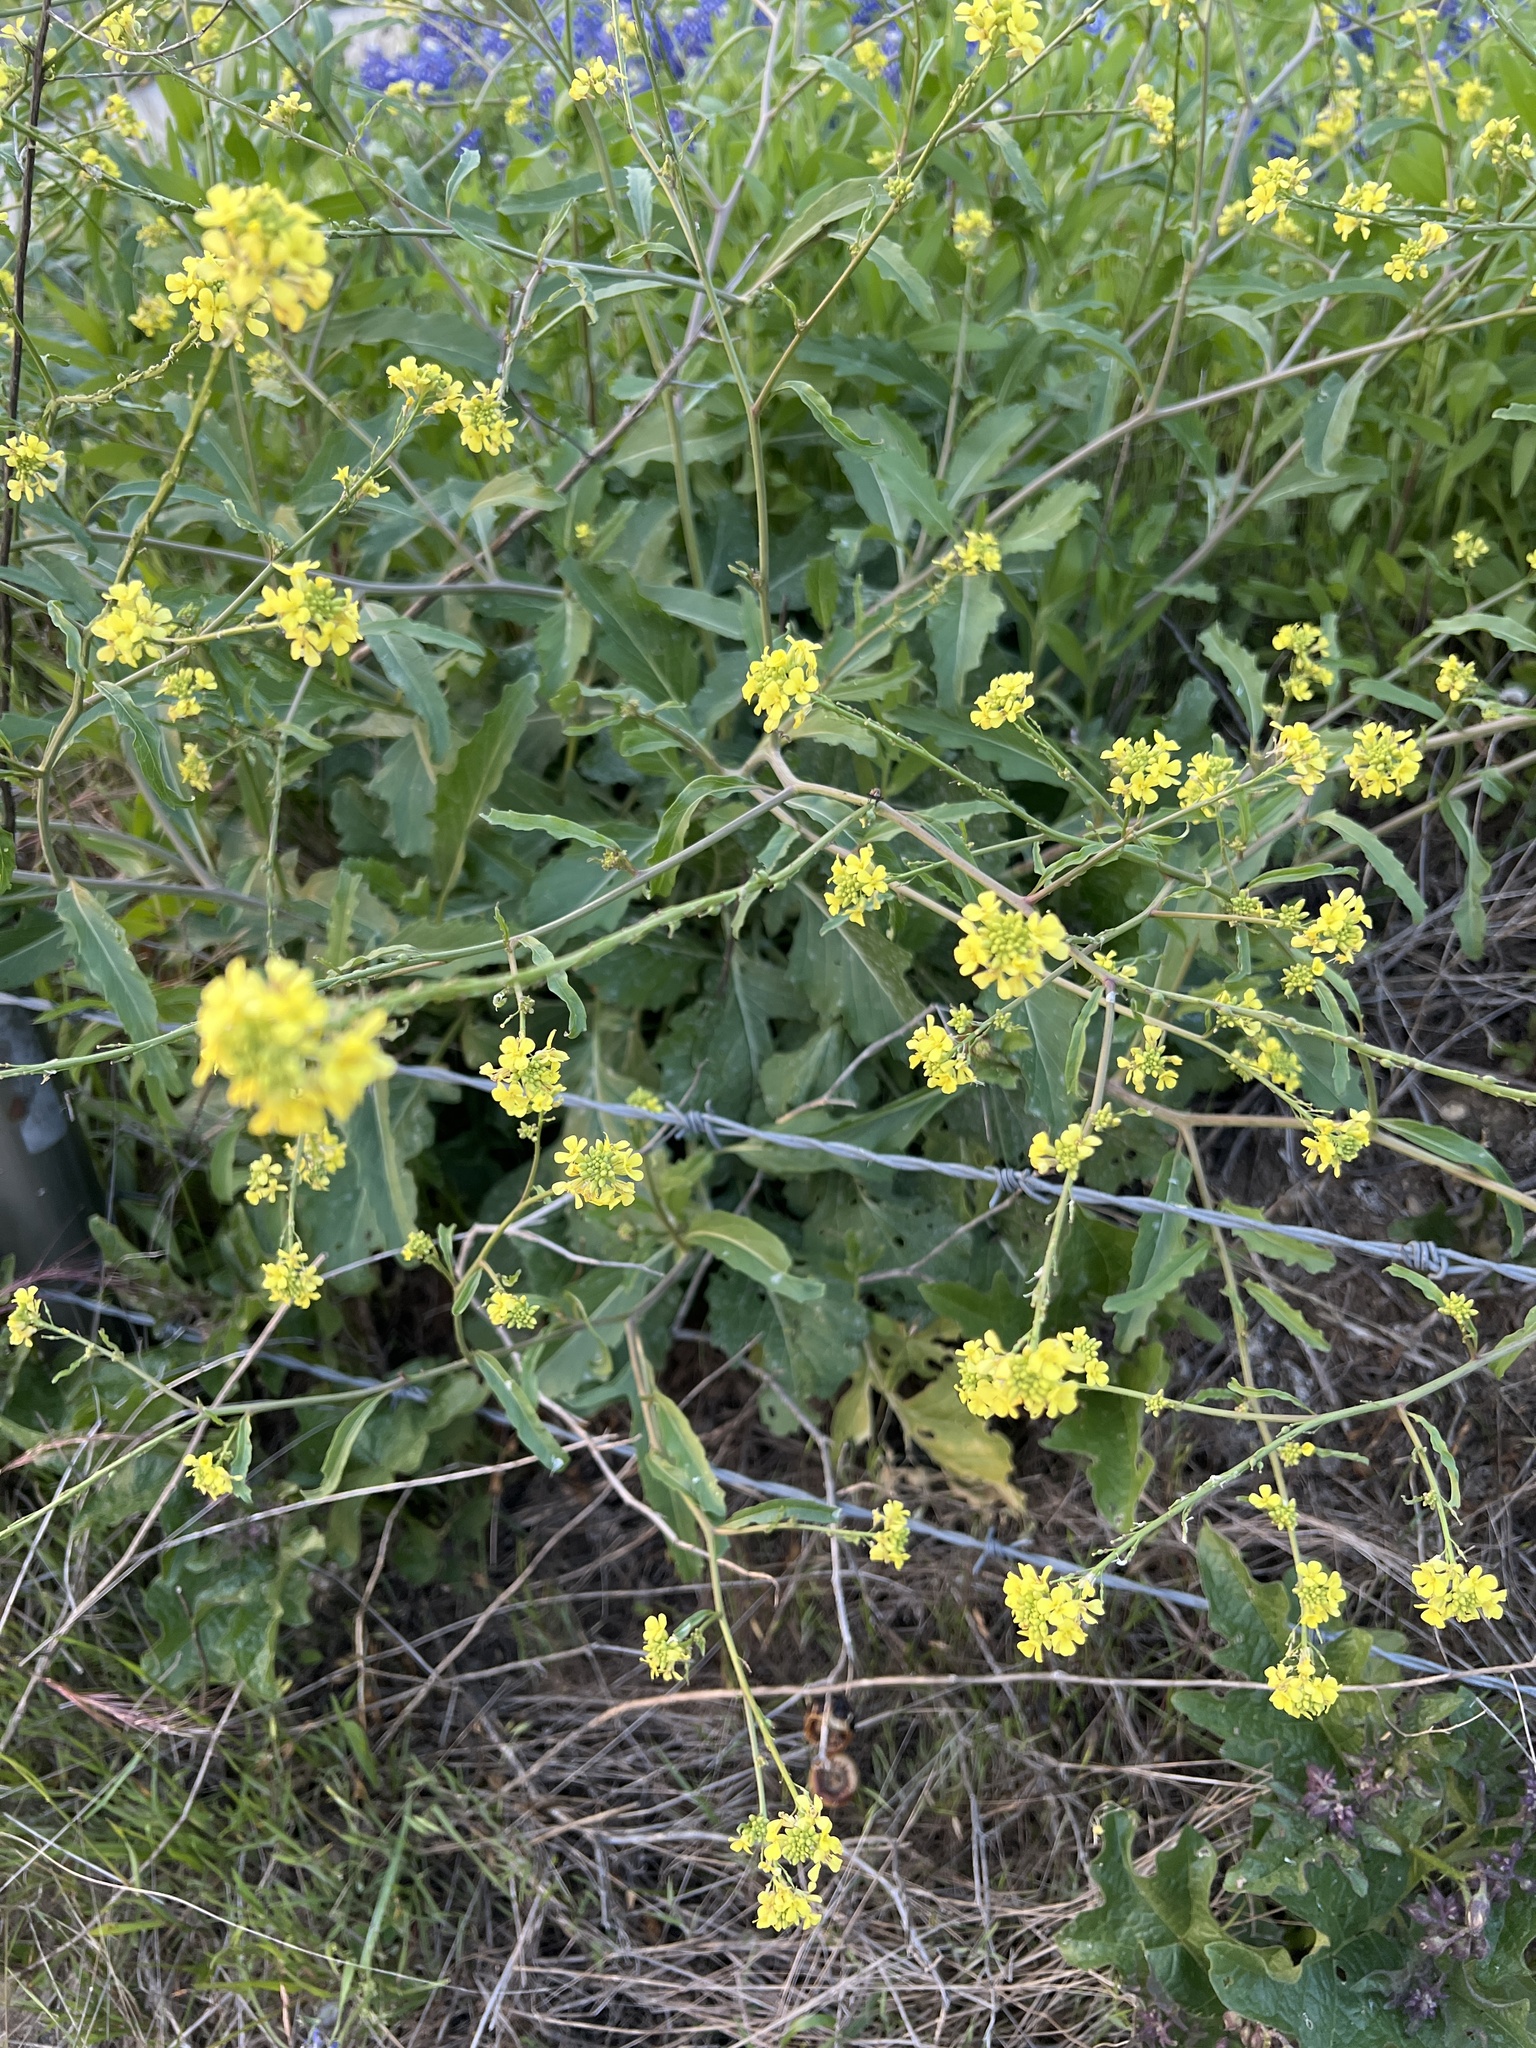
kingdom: Plantae
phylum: Tracheophyta
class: Magnoliopsida
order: Brassicales
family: Brassicaceae
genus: Rapistrum
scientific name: Rapistrum rugosum
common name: Annual bastardcabbage
